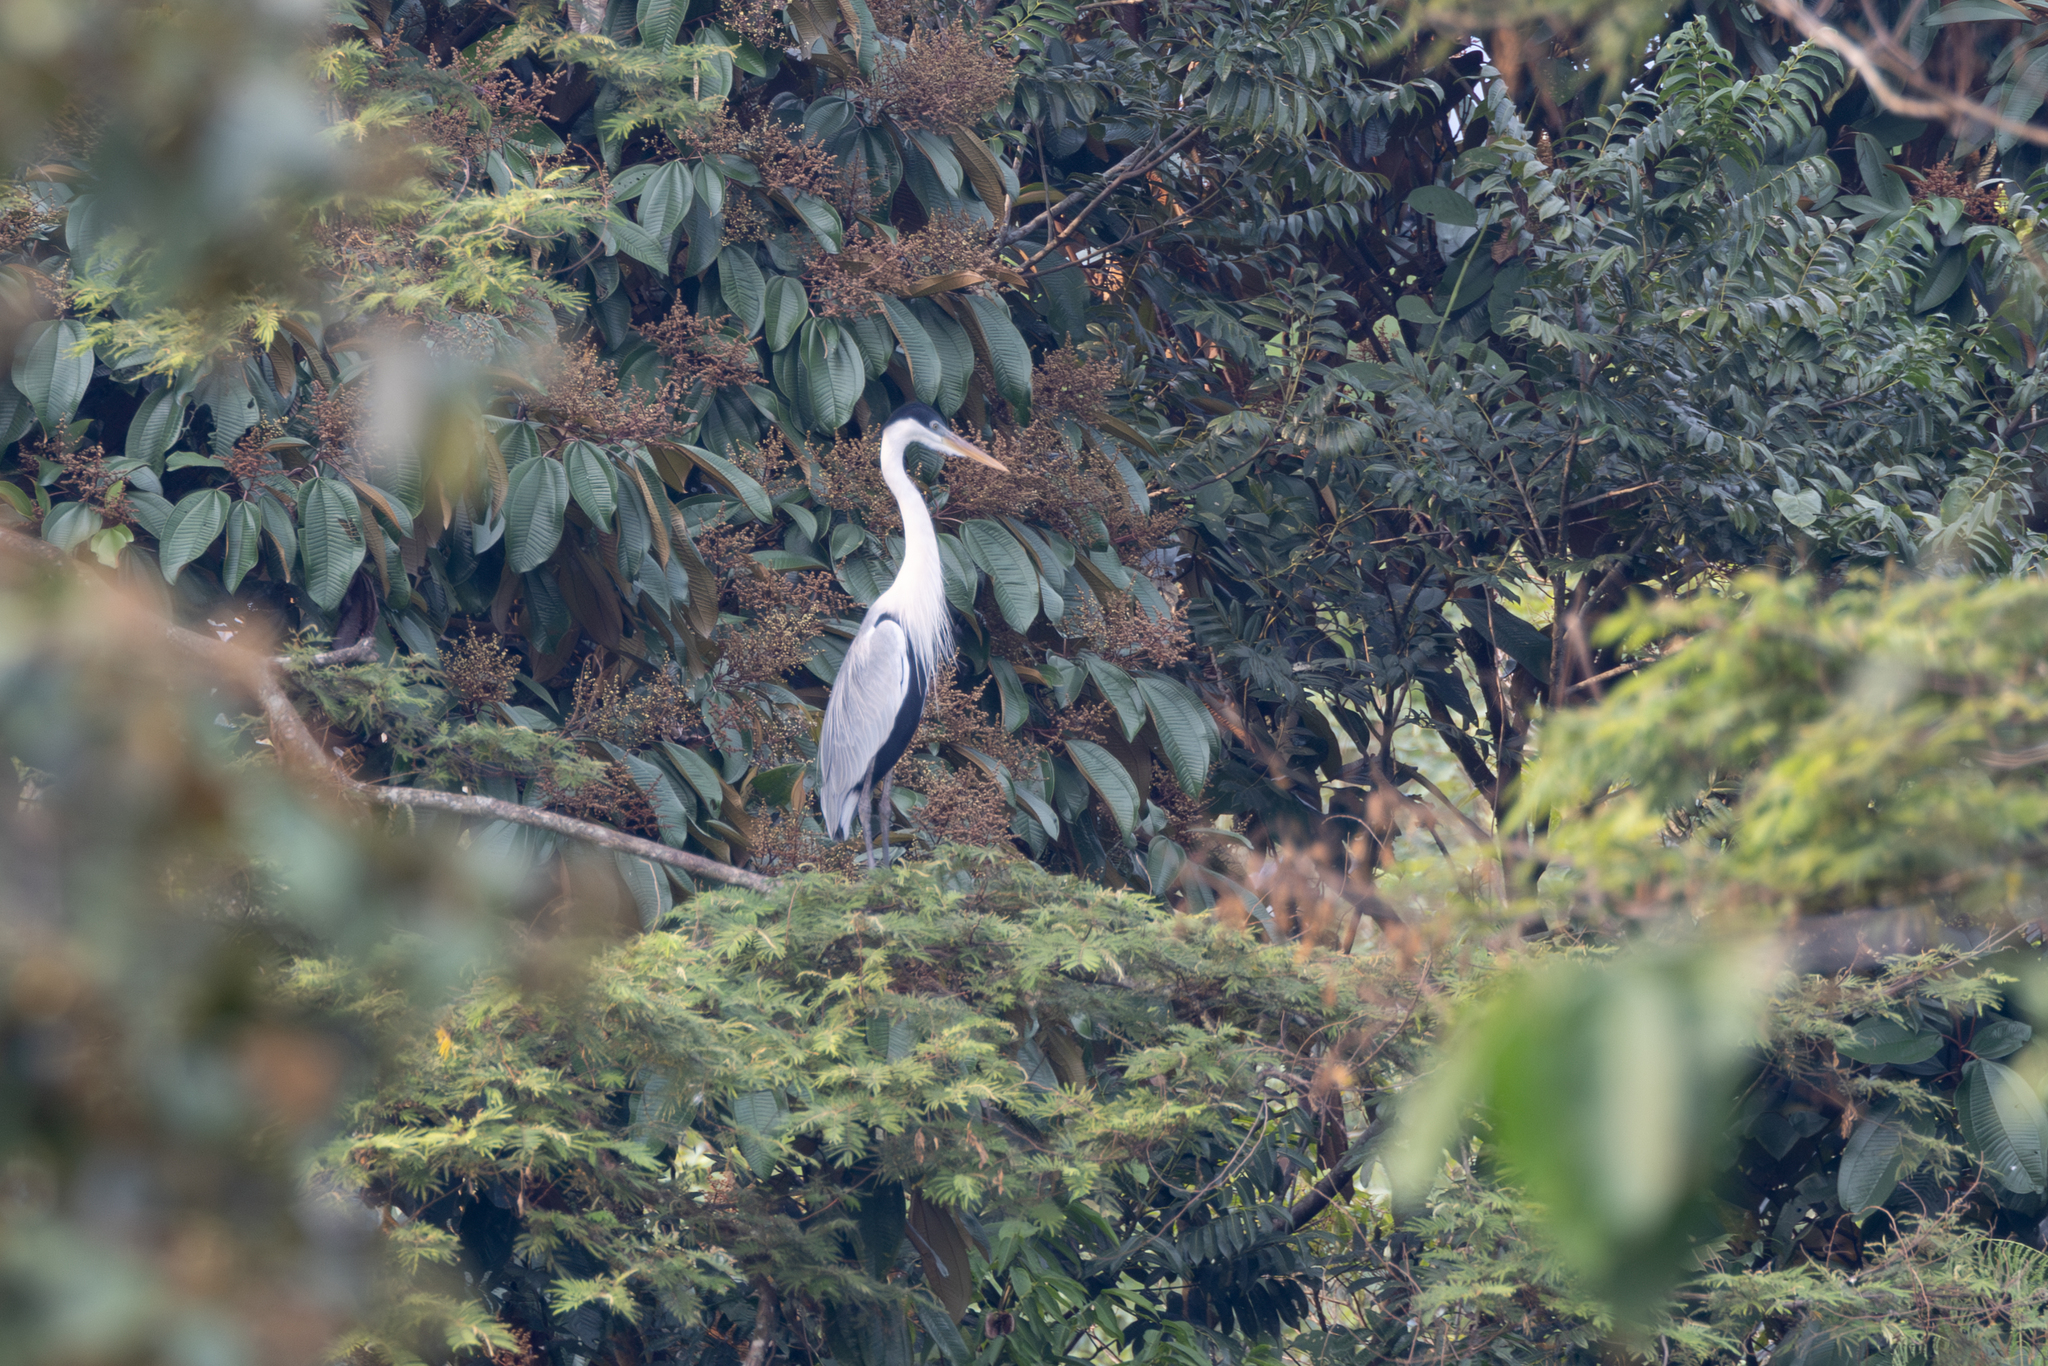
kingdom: Animalia
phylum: Chordata
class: Aves
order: Pelecaniformes
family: Ardeidae
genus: Ardea
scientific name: Ardea cocoi
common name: Cocoi heron
